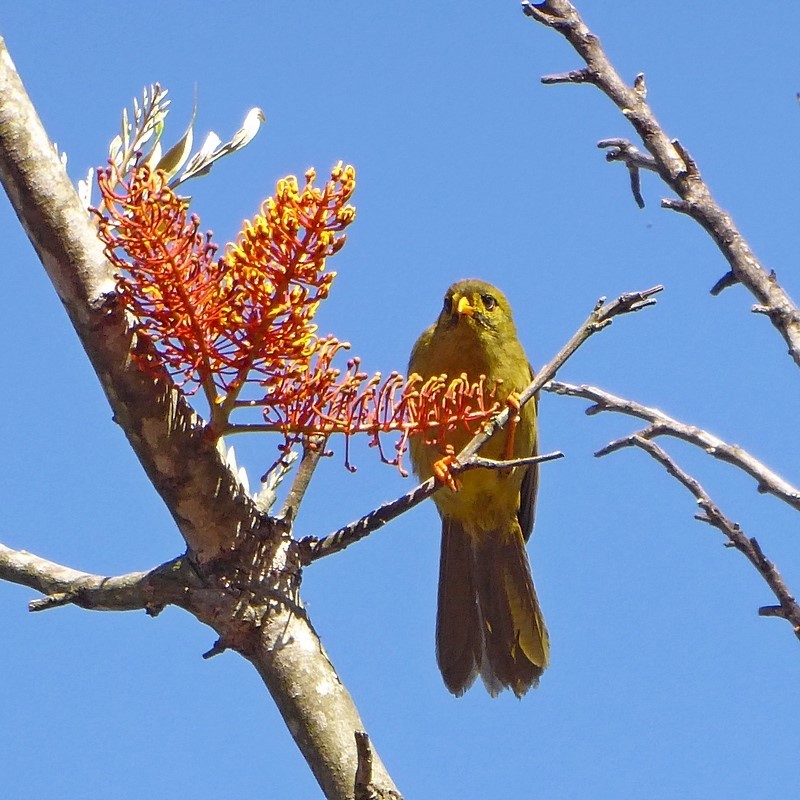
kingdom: Animalia
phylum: Chordata
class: Aves
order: Passeriformes
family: Meliphagidae
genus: Manorina
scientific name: Manorina melanophrys
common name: Bell miner
